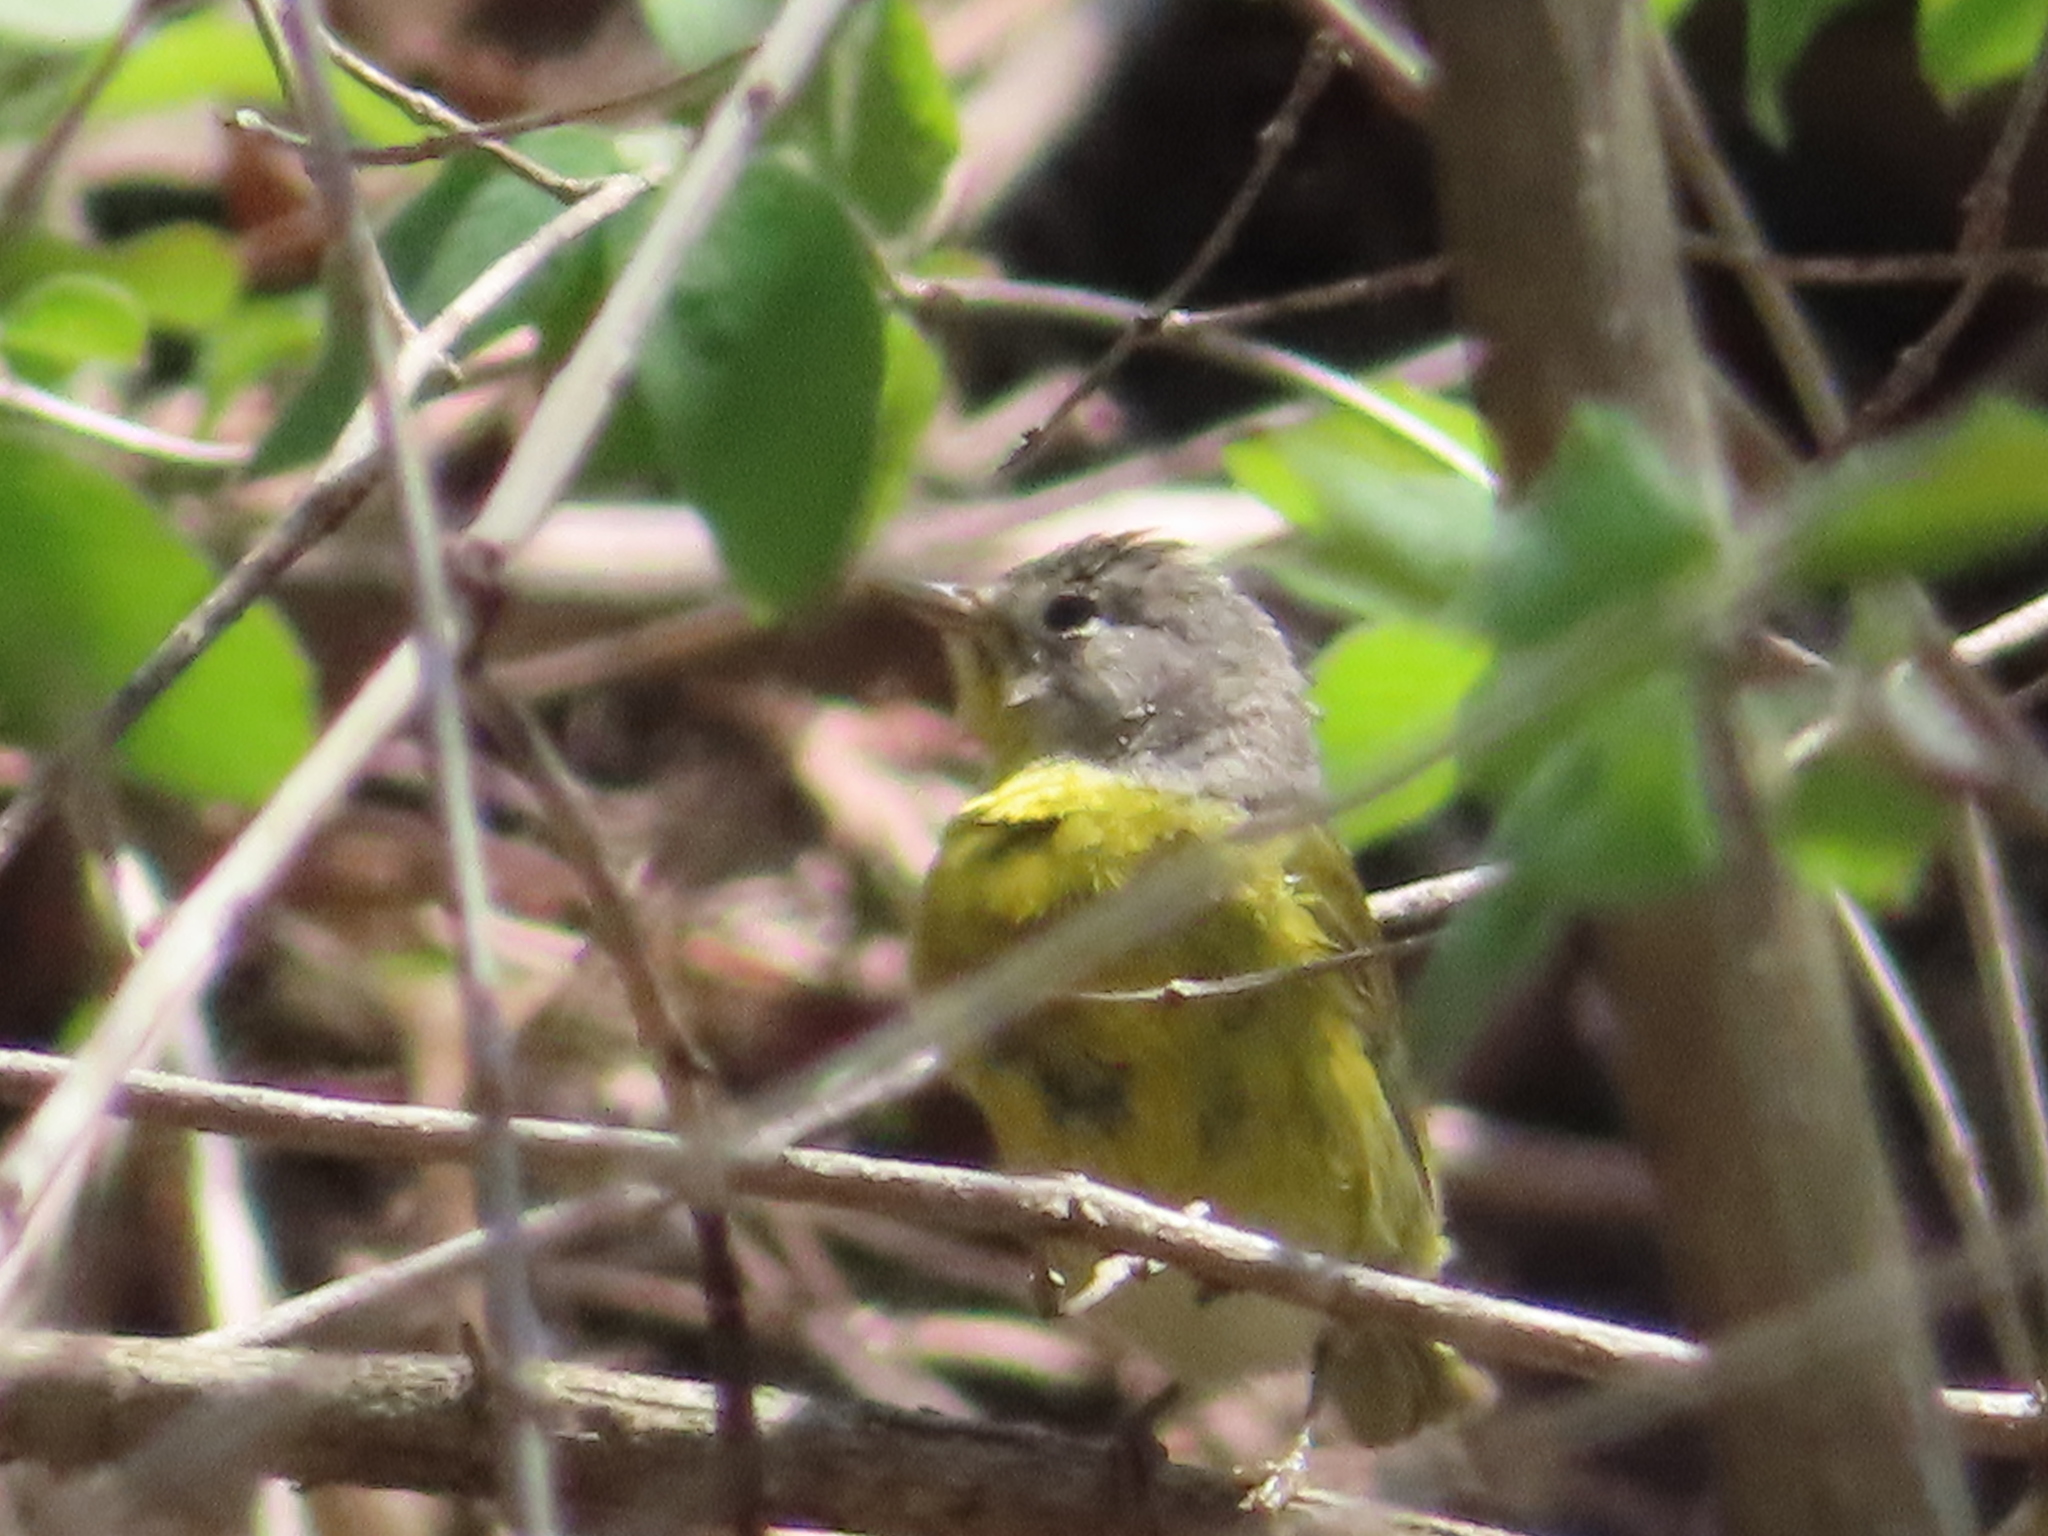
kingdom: Animalia
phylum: Chordata
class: Aves
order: Passeriformes
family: Parulidae
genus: Leiothlypis
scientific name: Leiothlypis ruficapilla
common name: Nashville warbler
